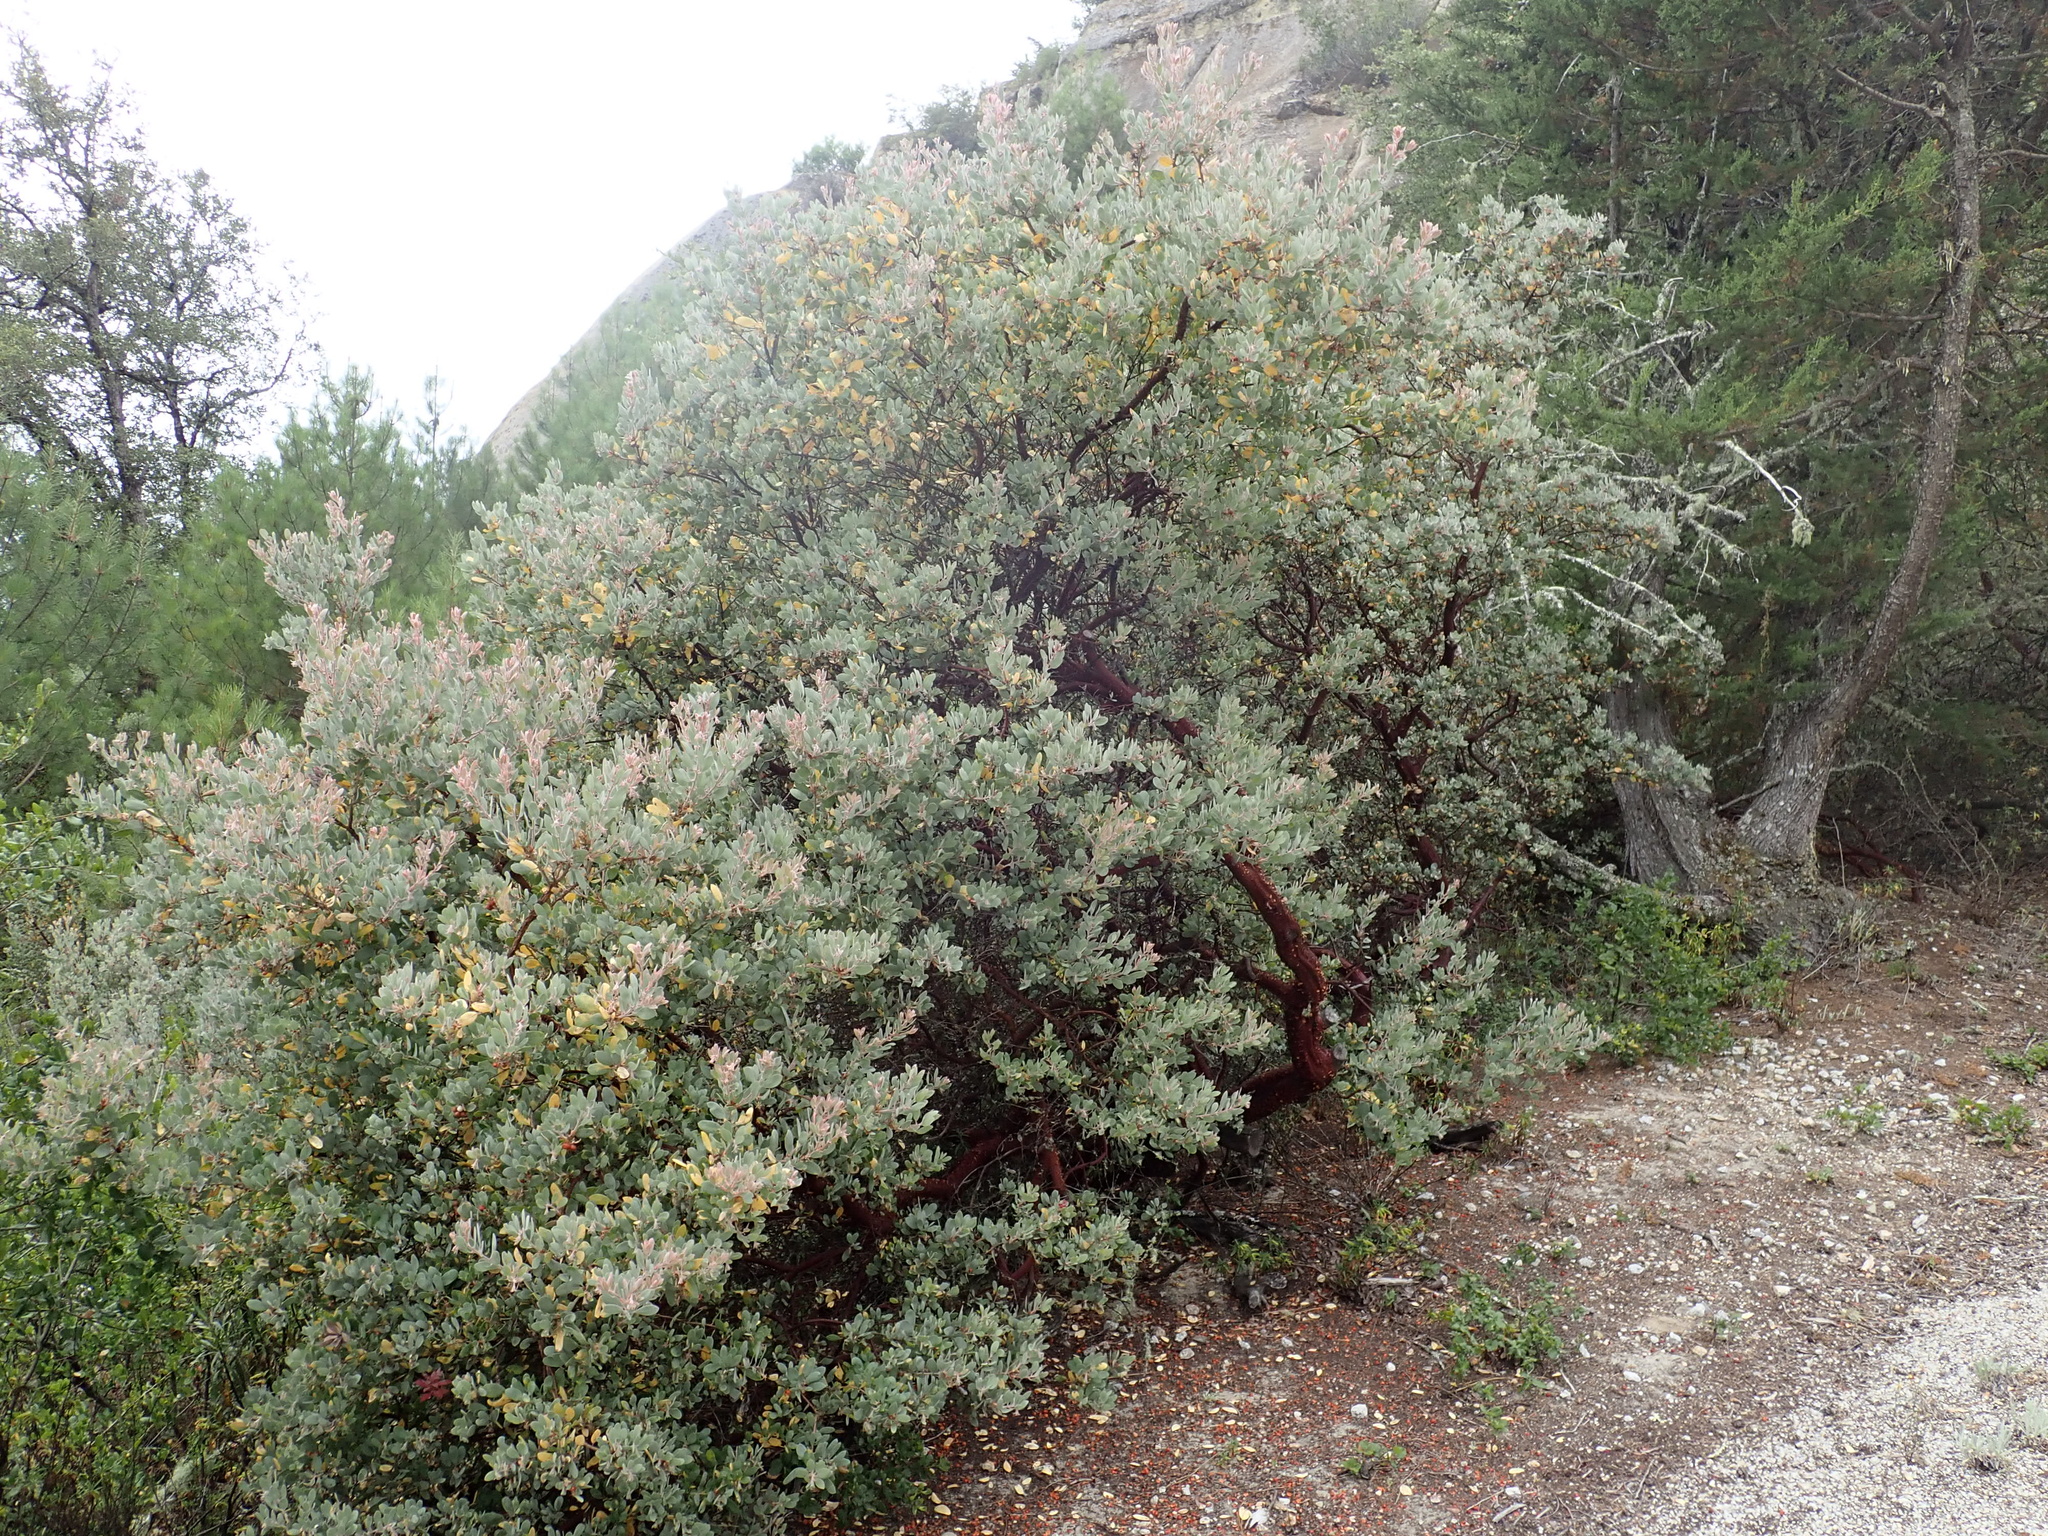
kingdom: Plantae
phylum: Tracheophyta
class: Magnoliopsida
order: Ericales
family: Ericaceae
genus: Arctostaphylos
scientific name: Arctostaphylos silvicola
